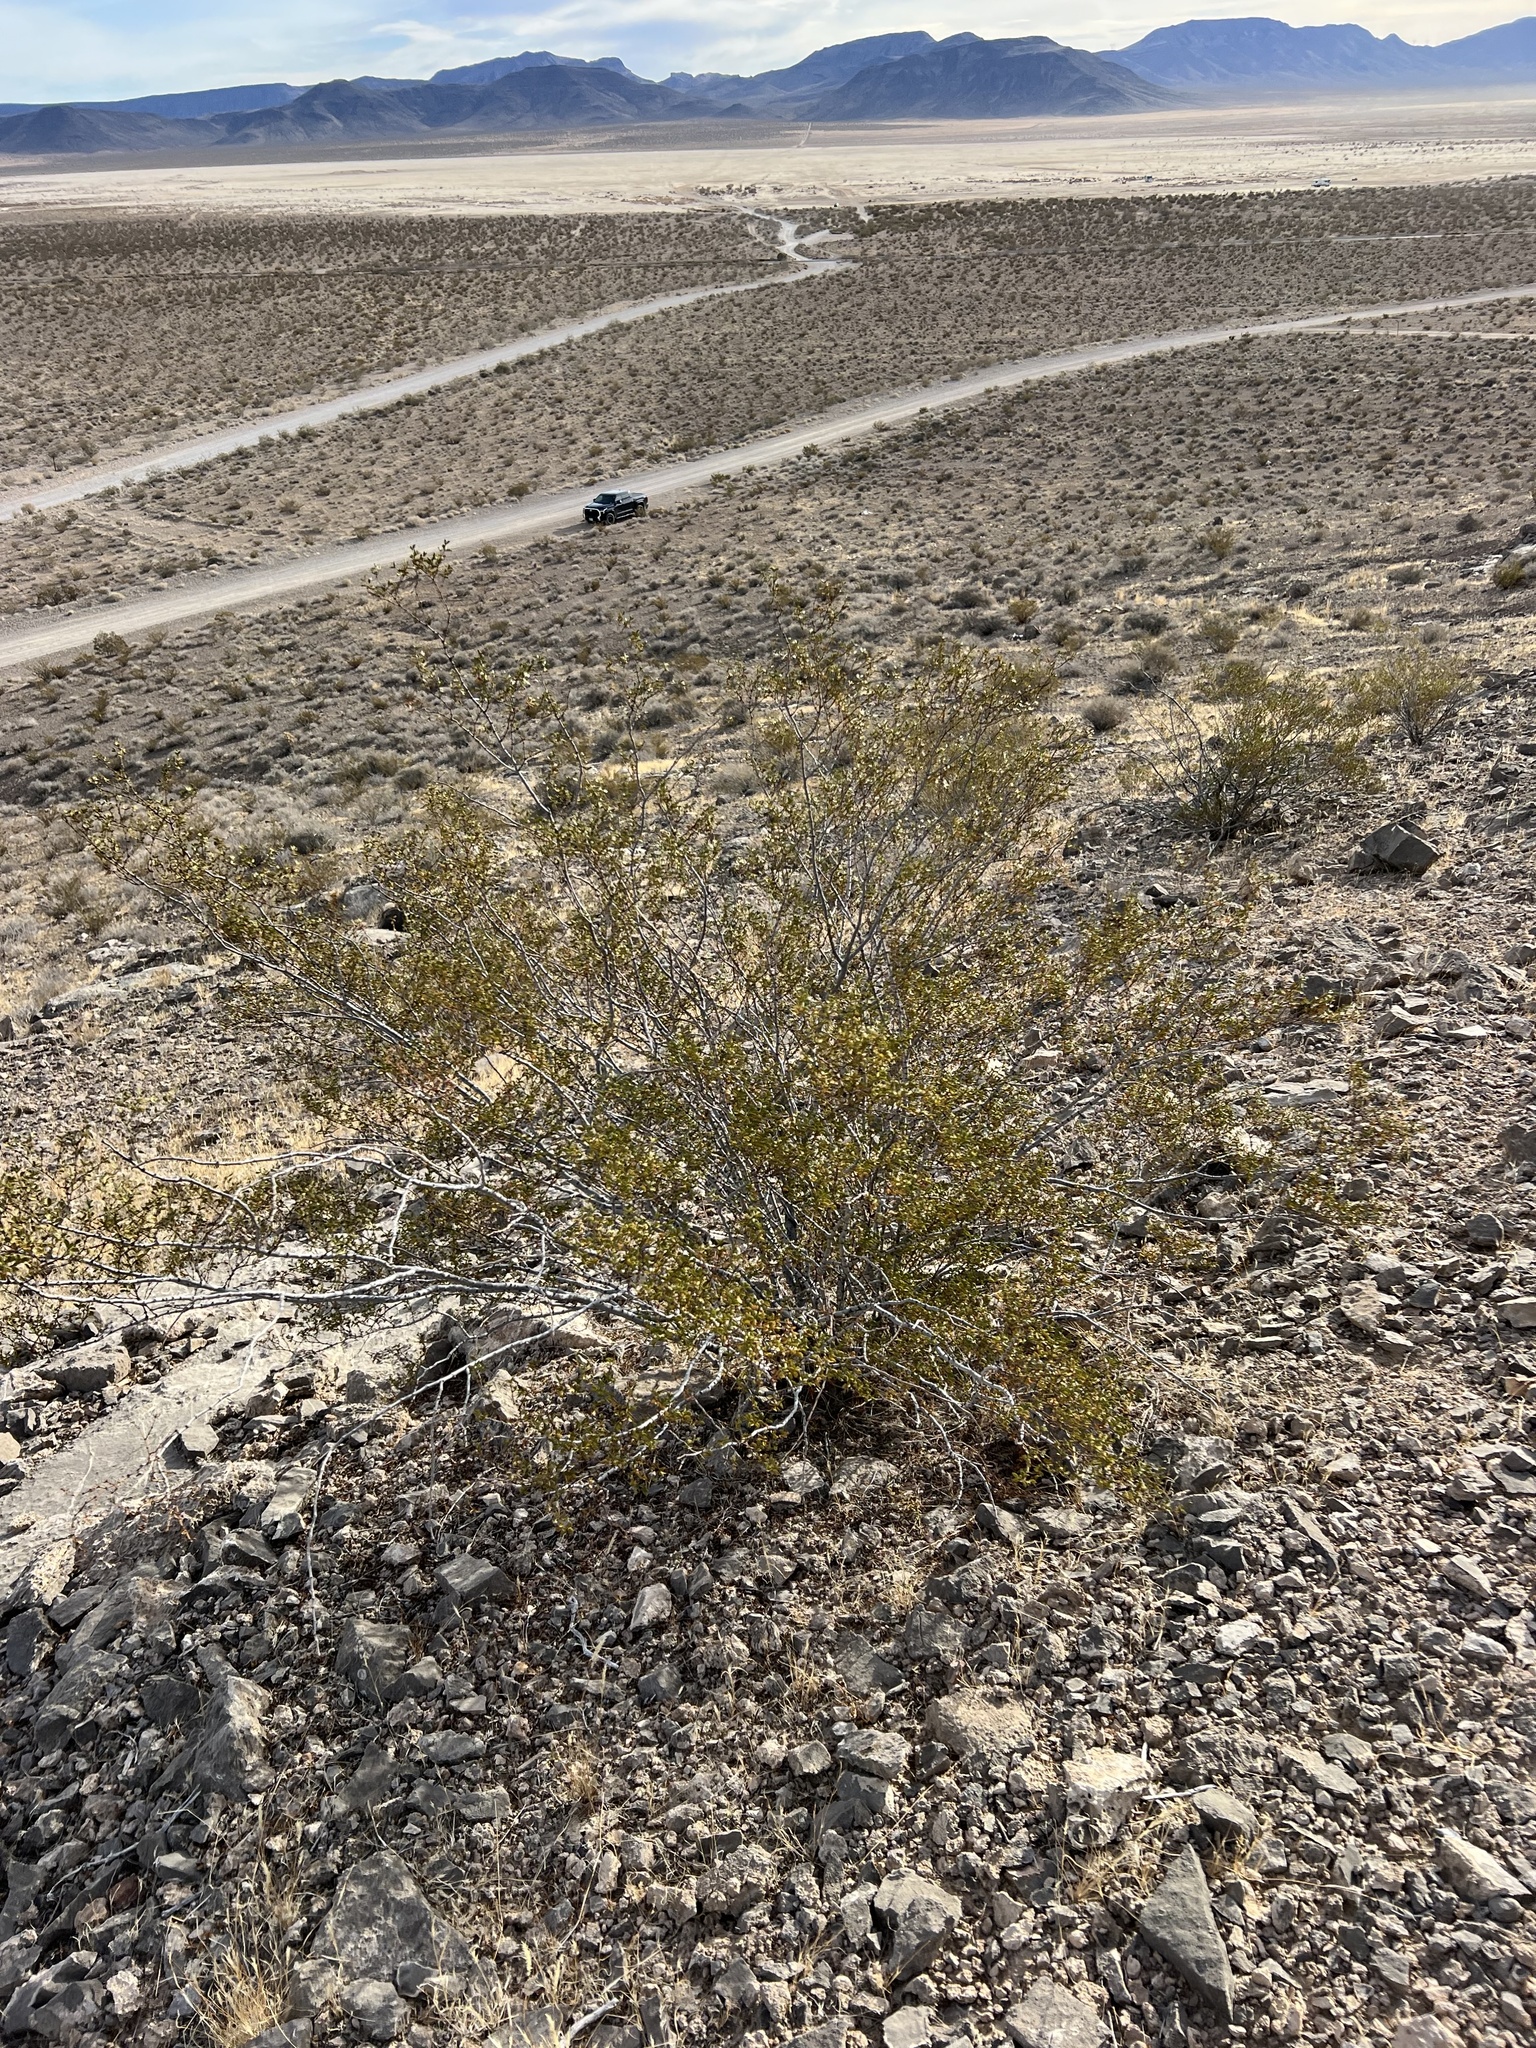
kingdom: Plantae
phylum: Tracheophyta
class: Magnoliopsida
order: Zygophyllales
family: Zygophyllaceae
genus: Larrea
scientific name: Larrea tridentata
